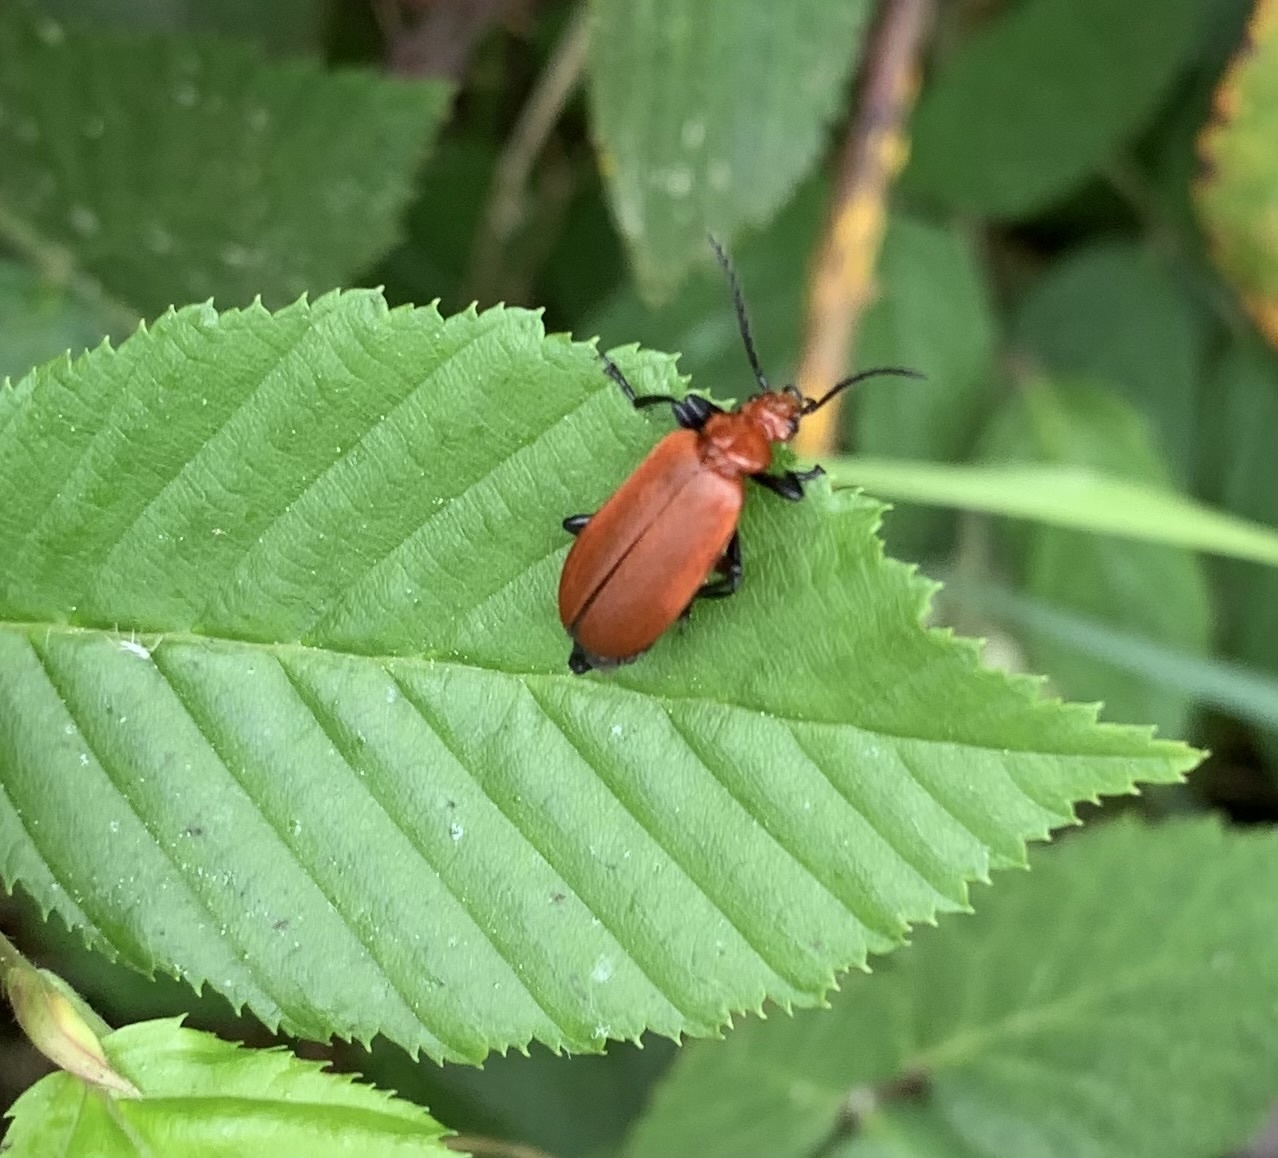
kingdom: Animalia
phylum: Arthropoda
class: Insecta
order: Coleoptera
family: Pyrochroidae
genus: Pyrochroa
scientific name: Pyrochroa serraticornis
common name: Red-headed cardinal beetle
